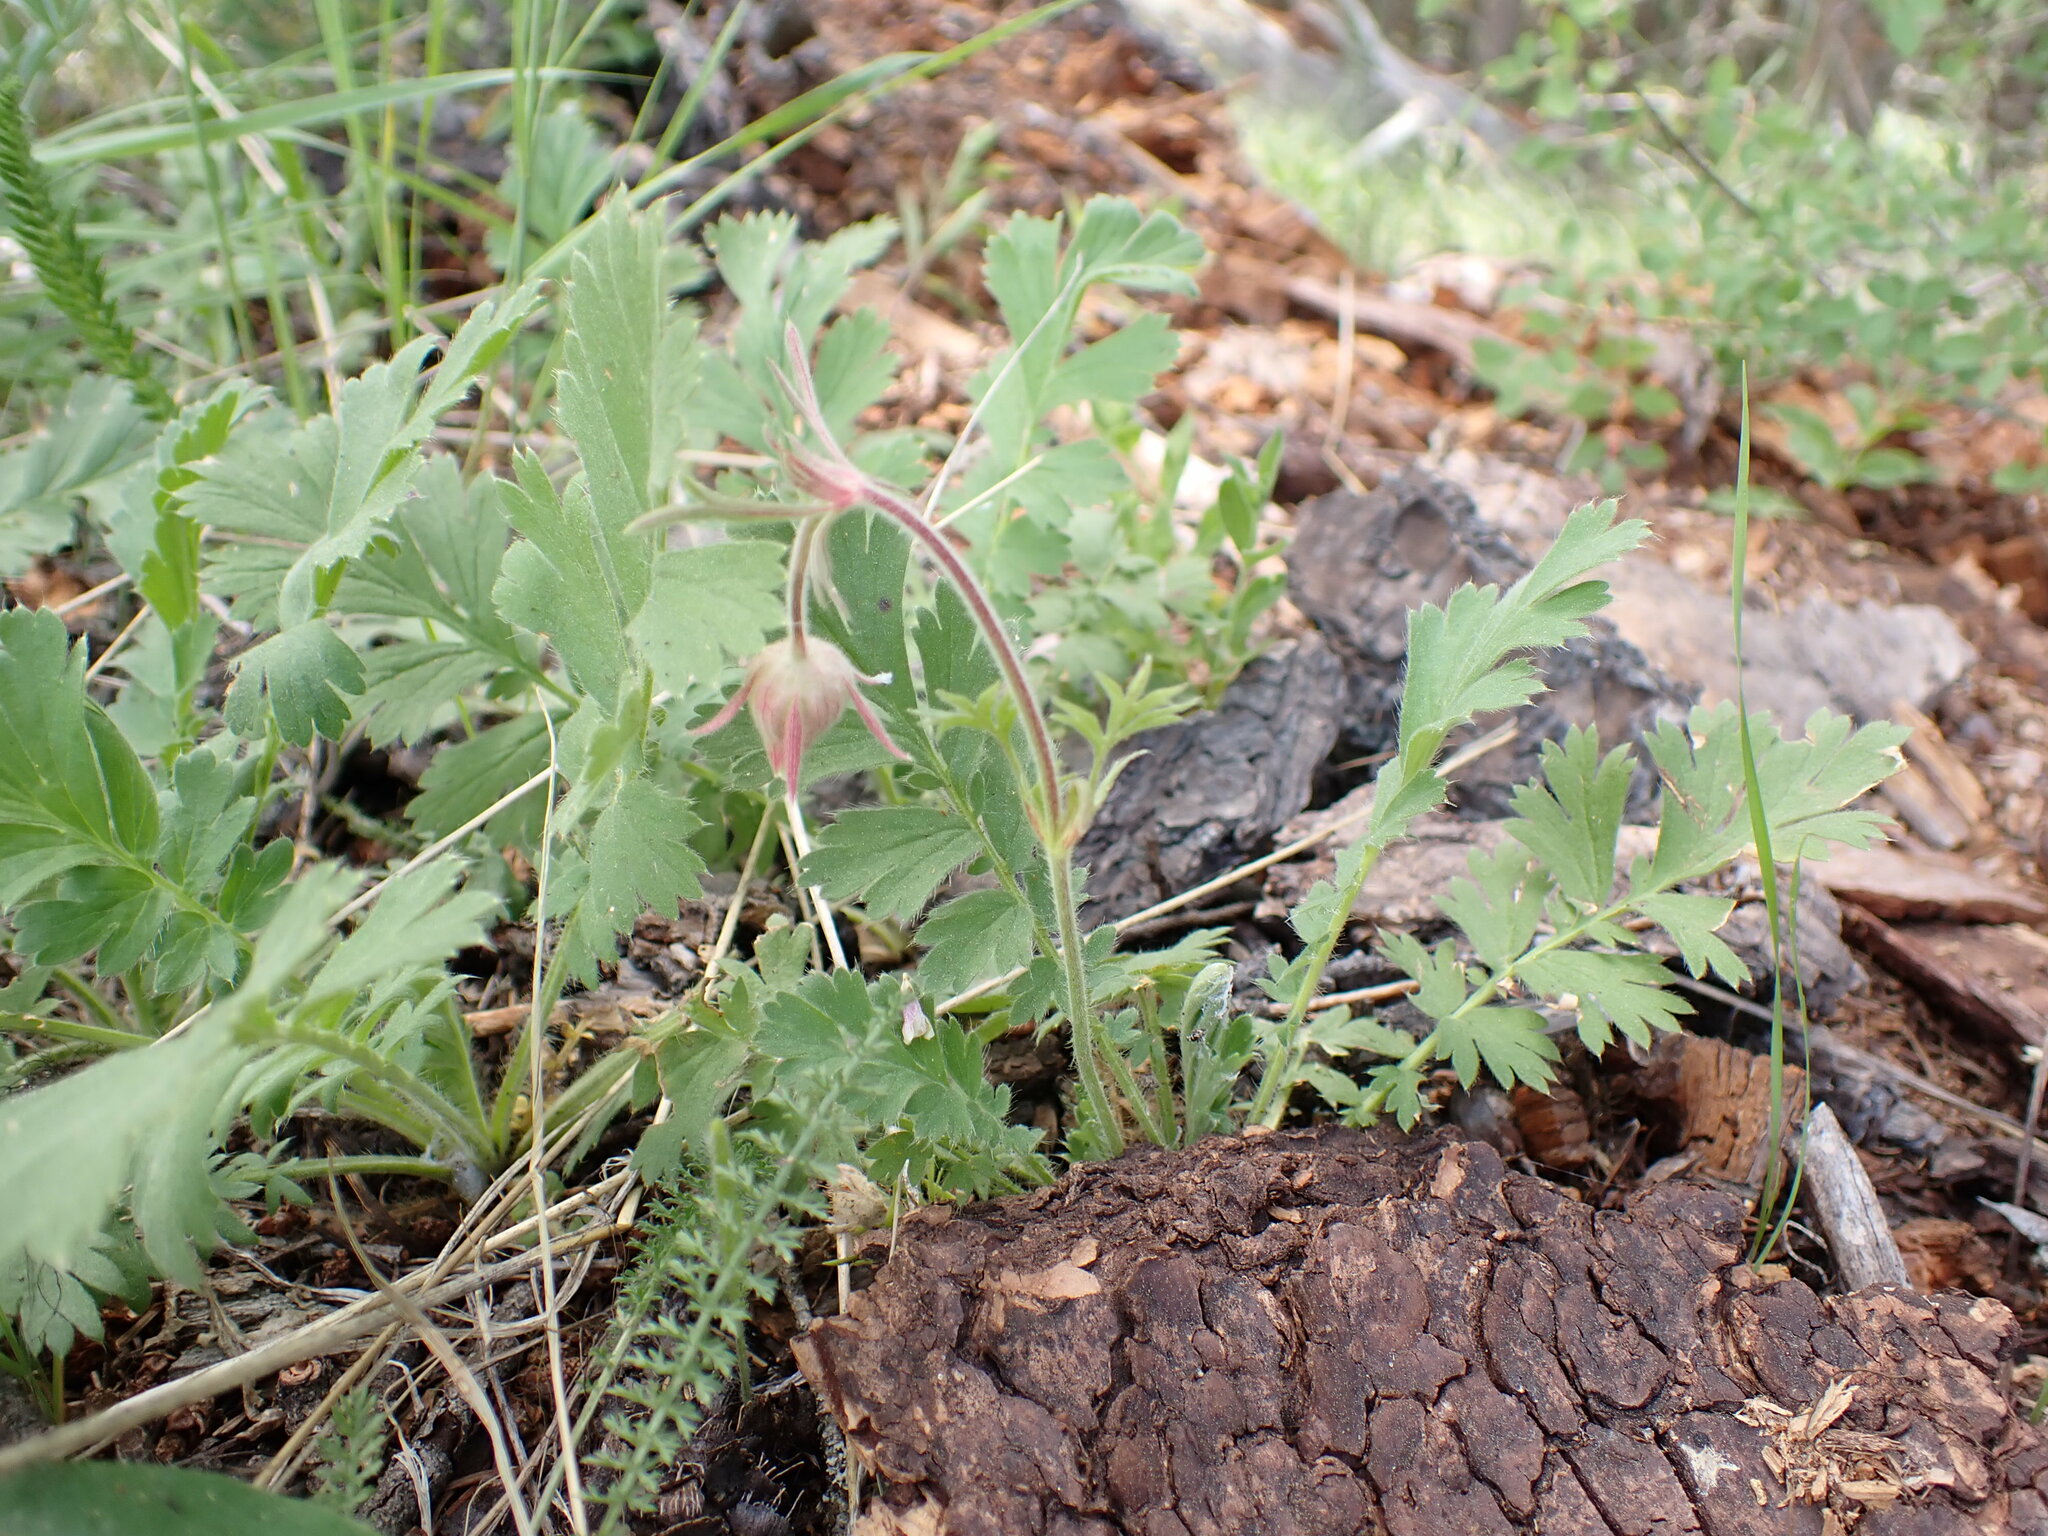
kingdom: Plantae
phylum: Tracheophyta
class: Magnoliopsida
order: Rosales
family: Rosaceae
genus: Geum
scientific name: Geum triflorum
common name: Old man's whiskers
